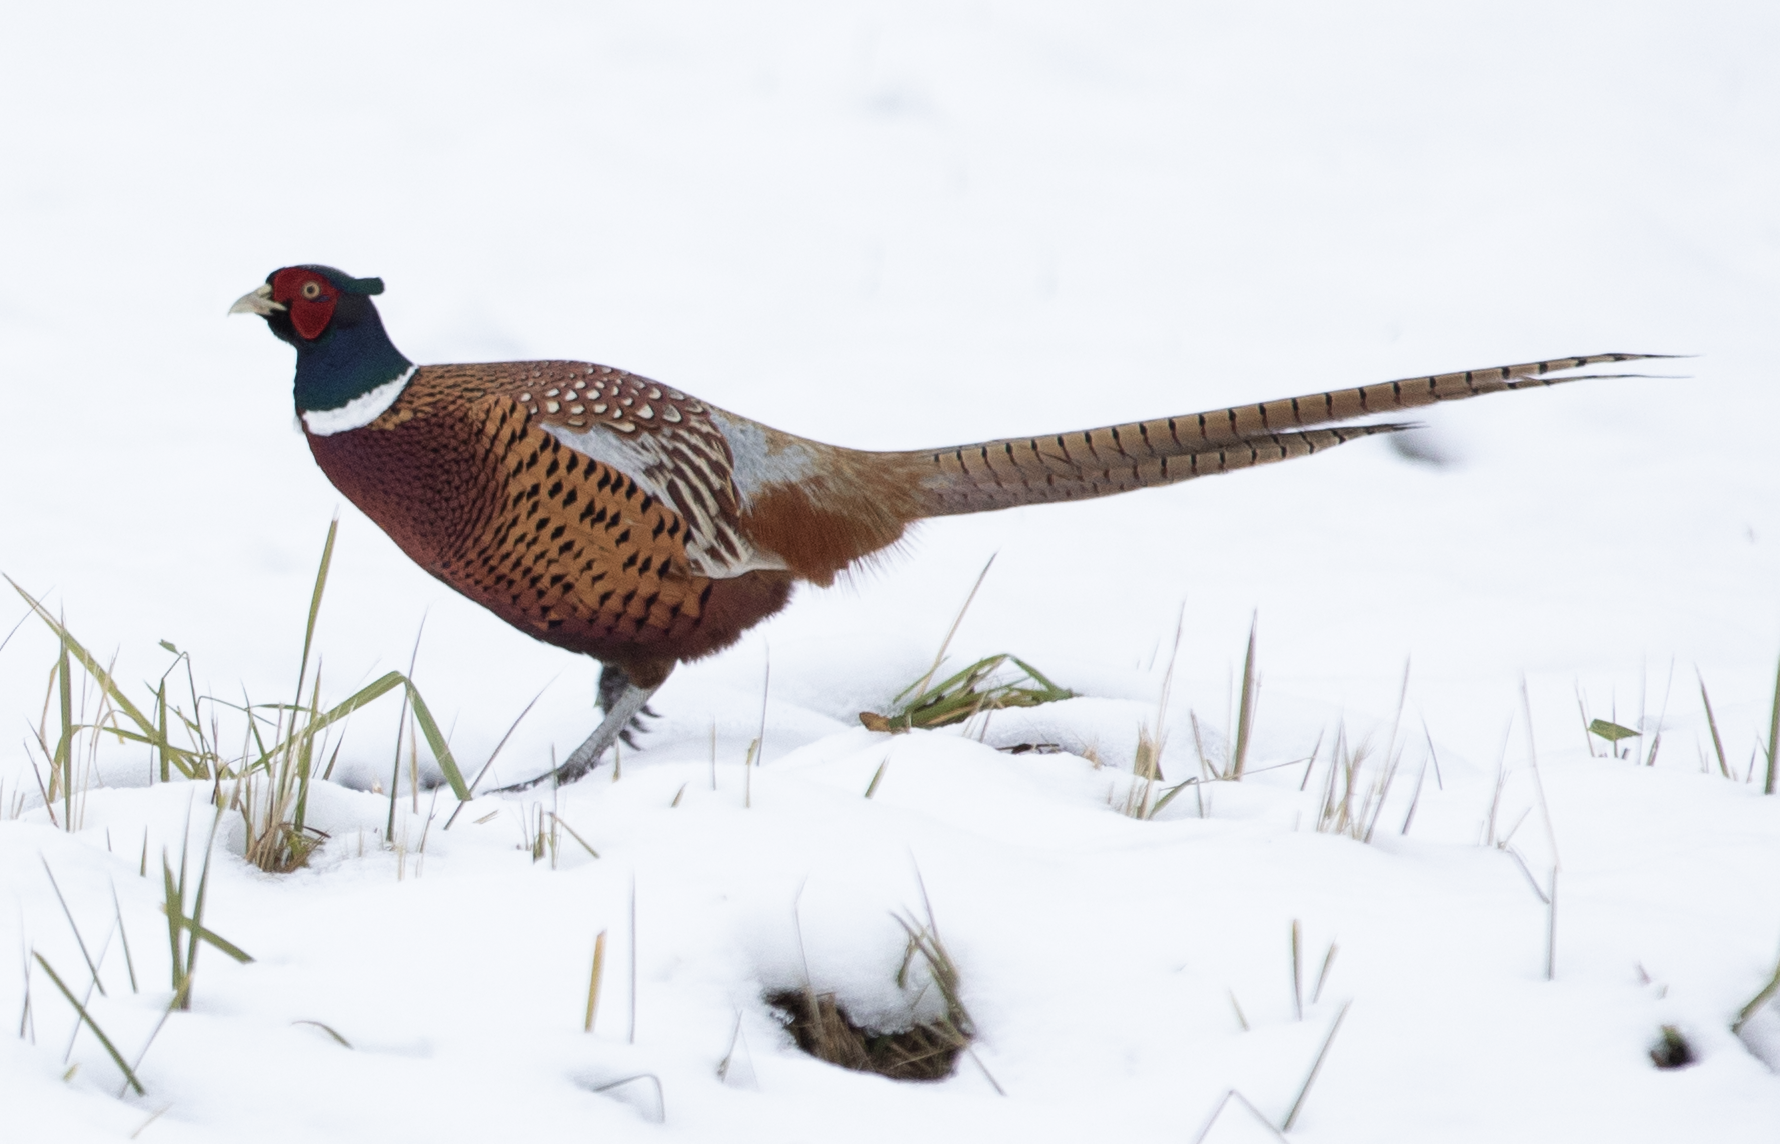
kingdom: Animalia
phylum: Chordata
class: Aves
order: Galliformes
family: Phasianidae
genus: Phasianus
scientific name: Phasianus colchicus
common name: Common pheasant
